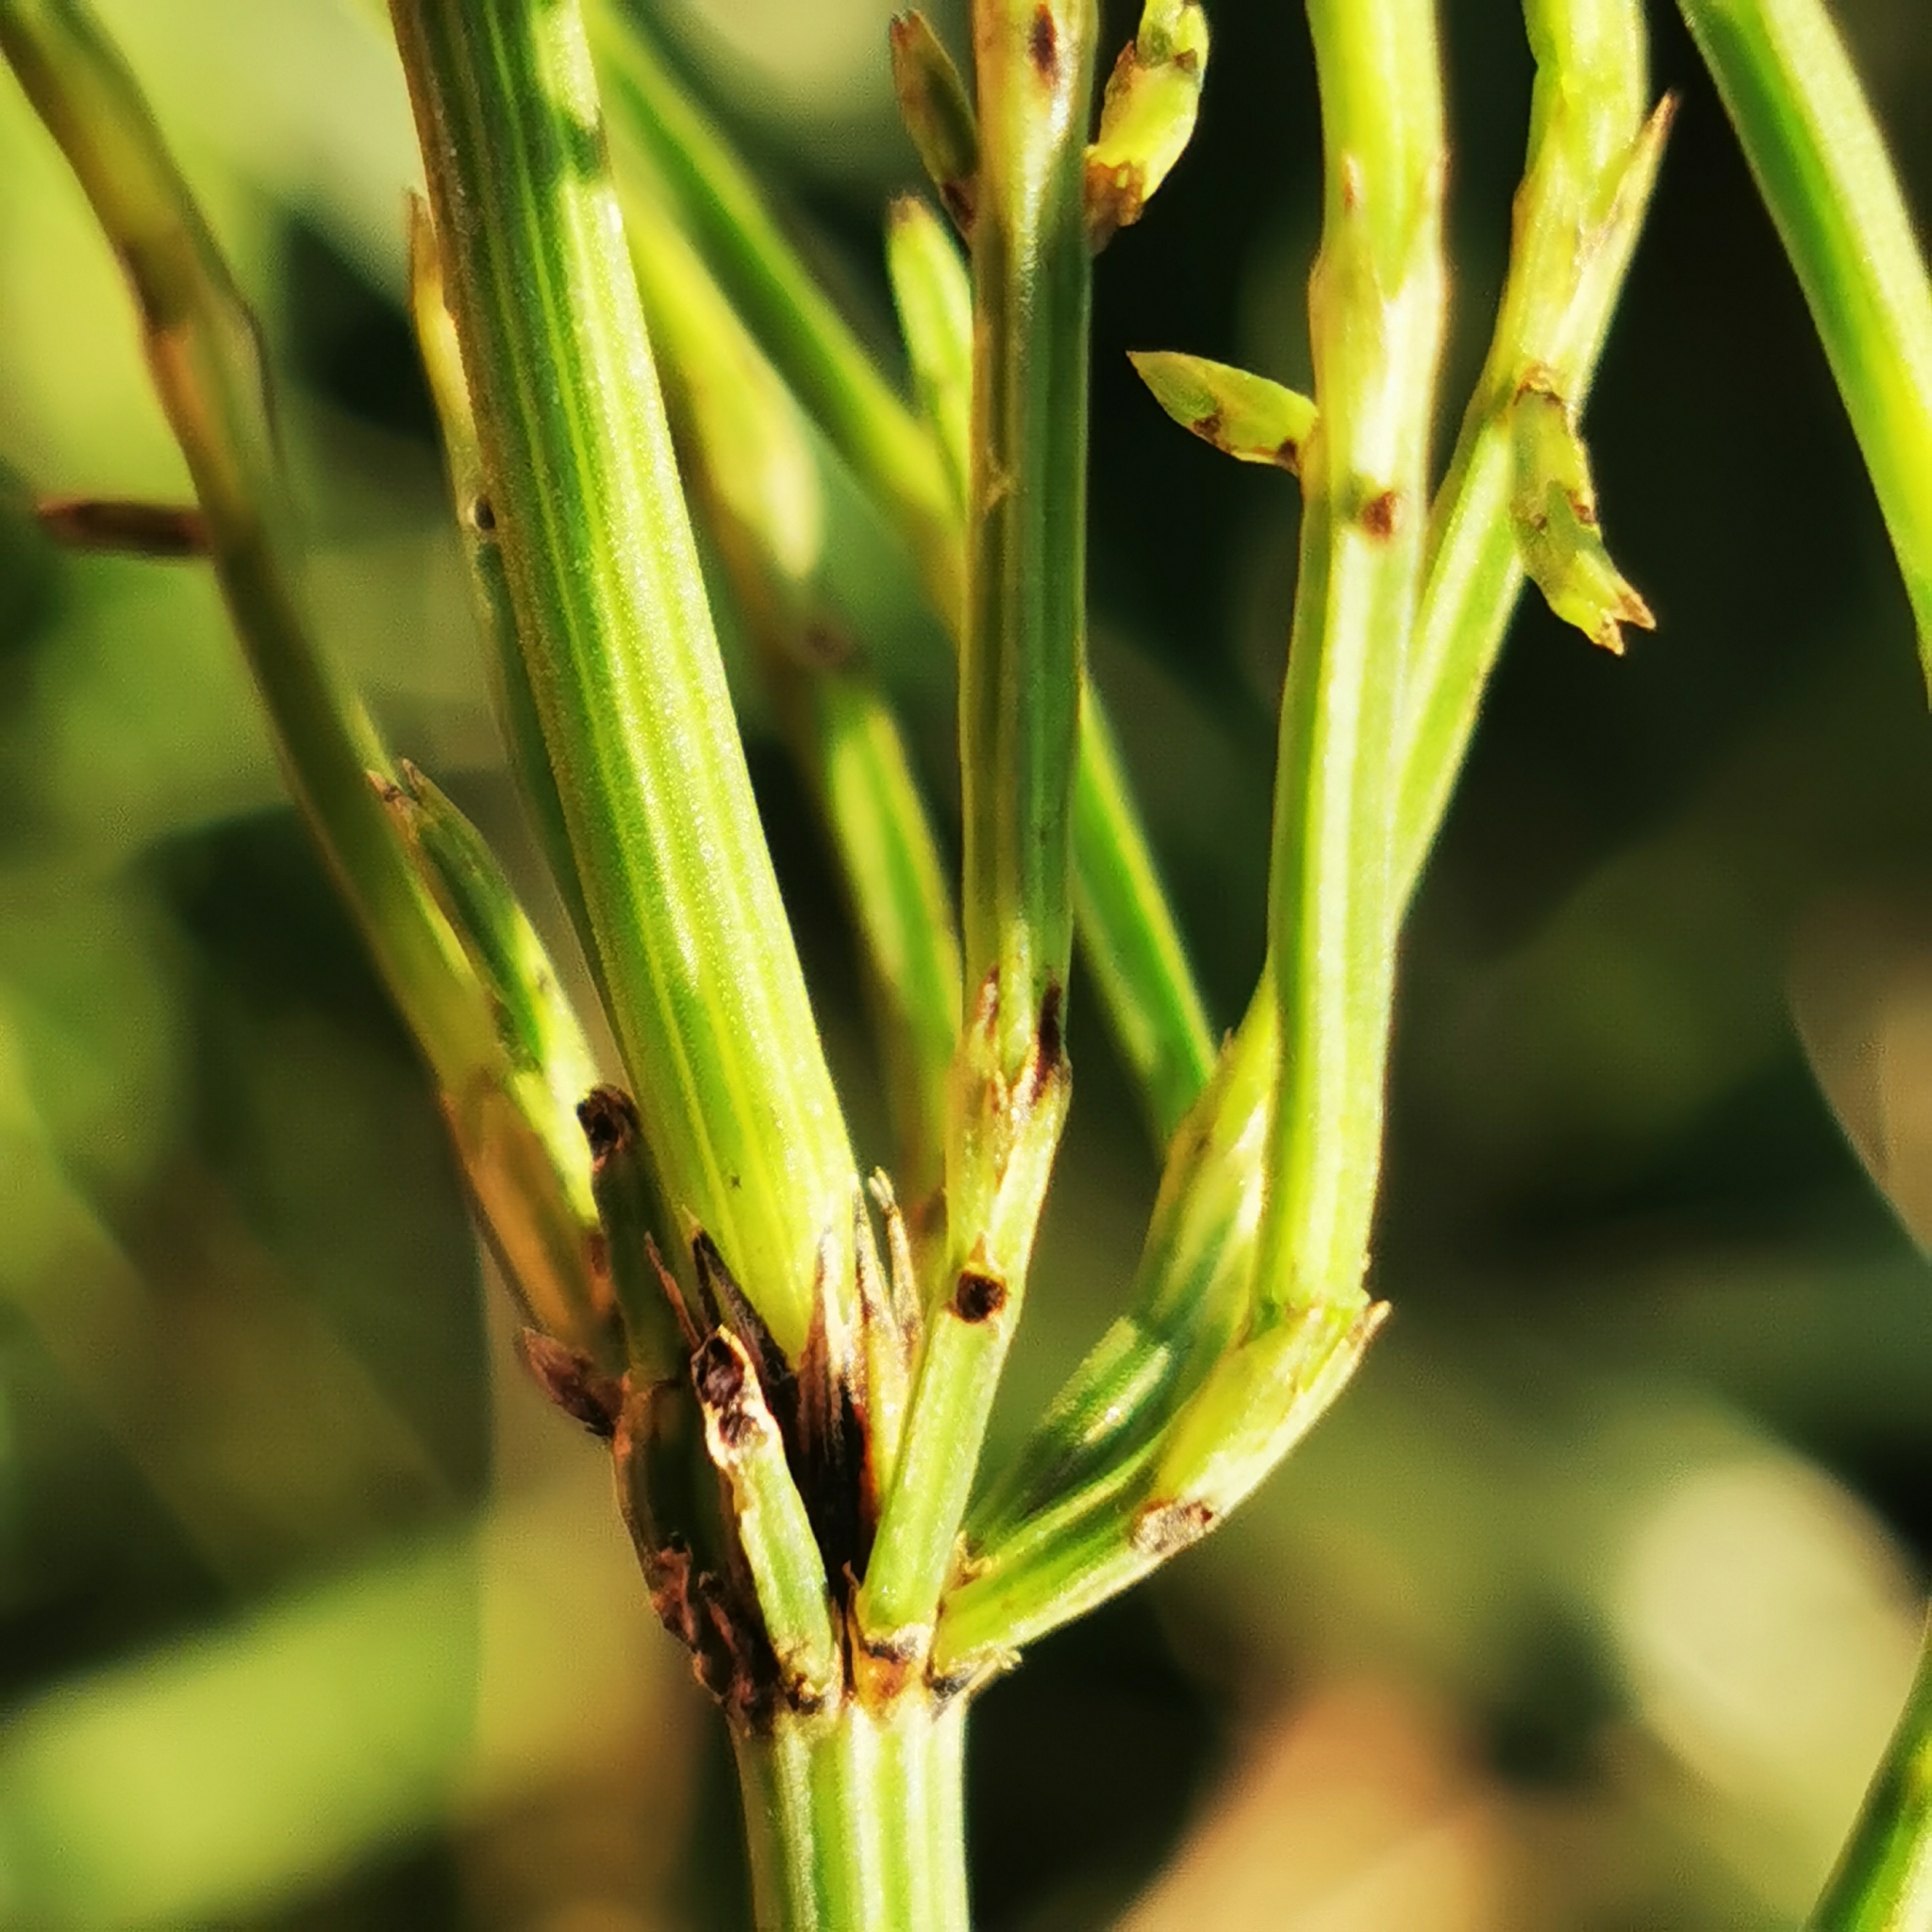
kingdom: Plantae
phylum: Tracheophyta
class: Polypodiopsida
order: Equisetales
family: Equisetaceae
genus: Equisetum
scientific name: Equisetum arvense
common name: Field horsetail
